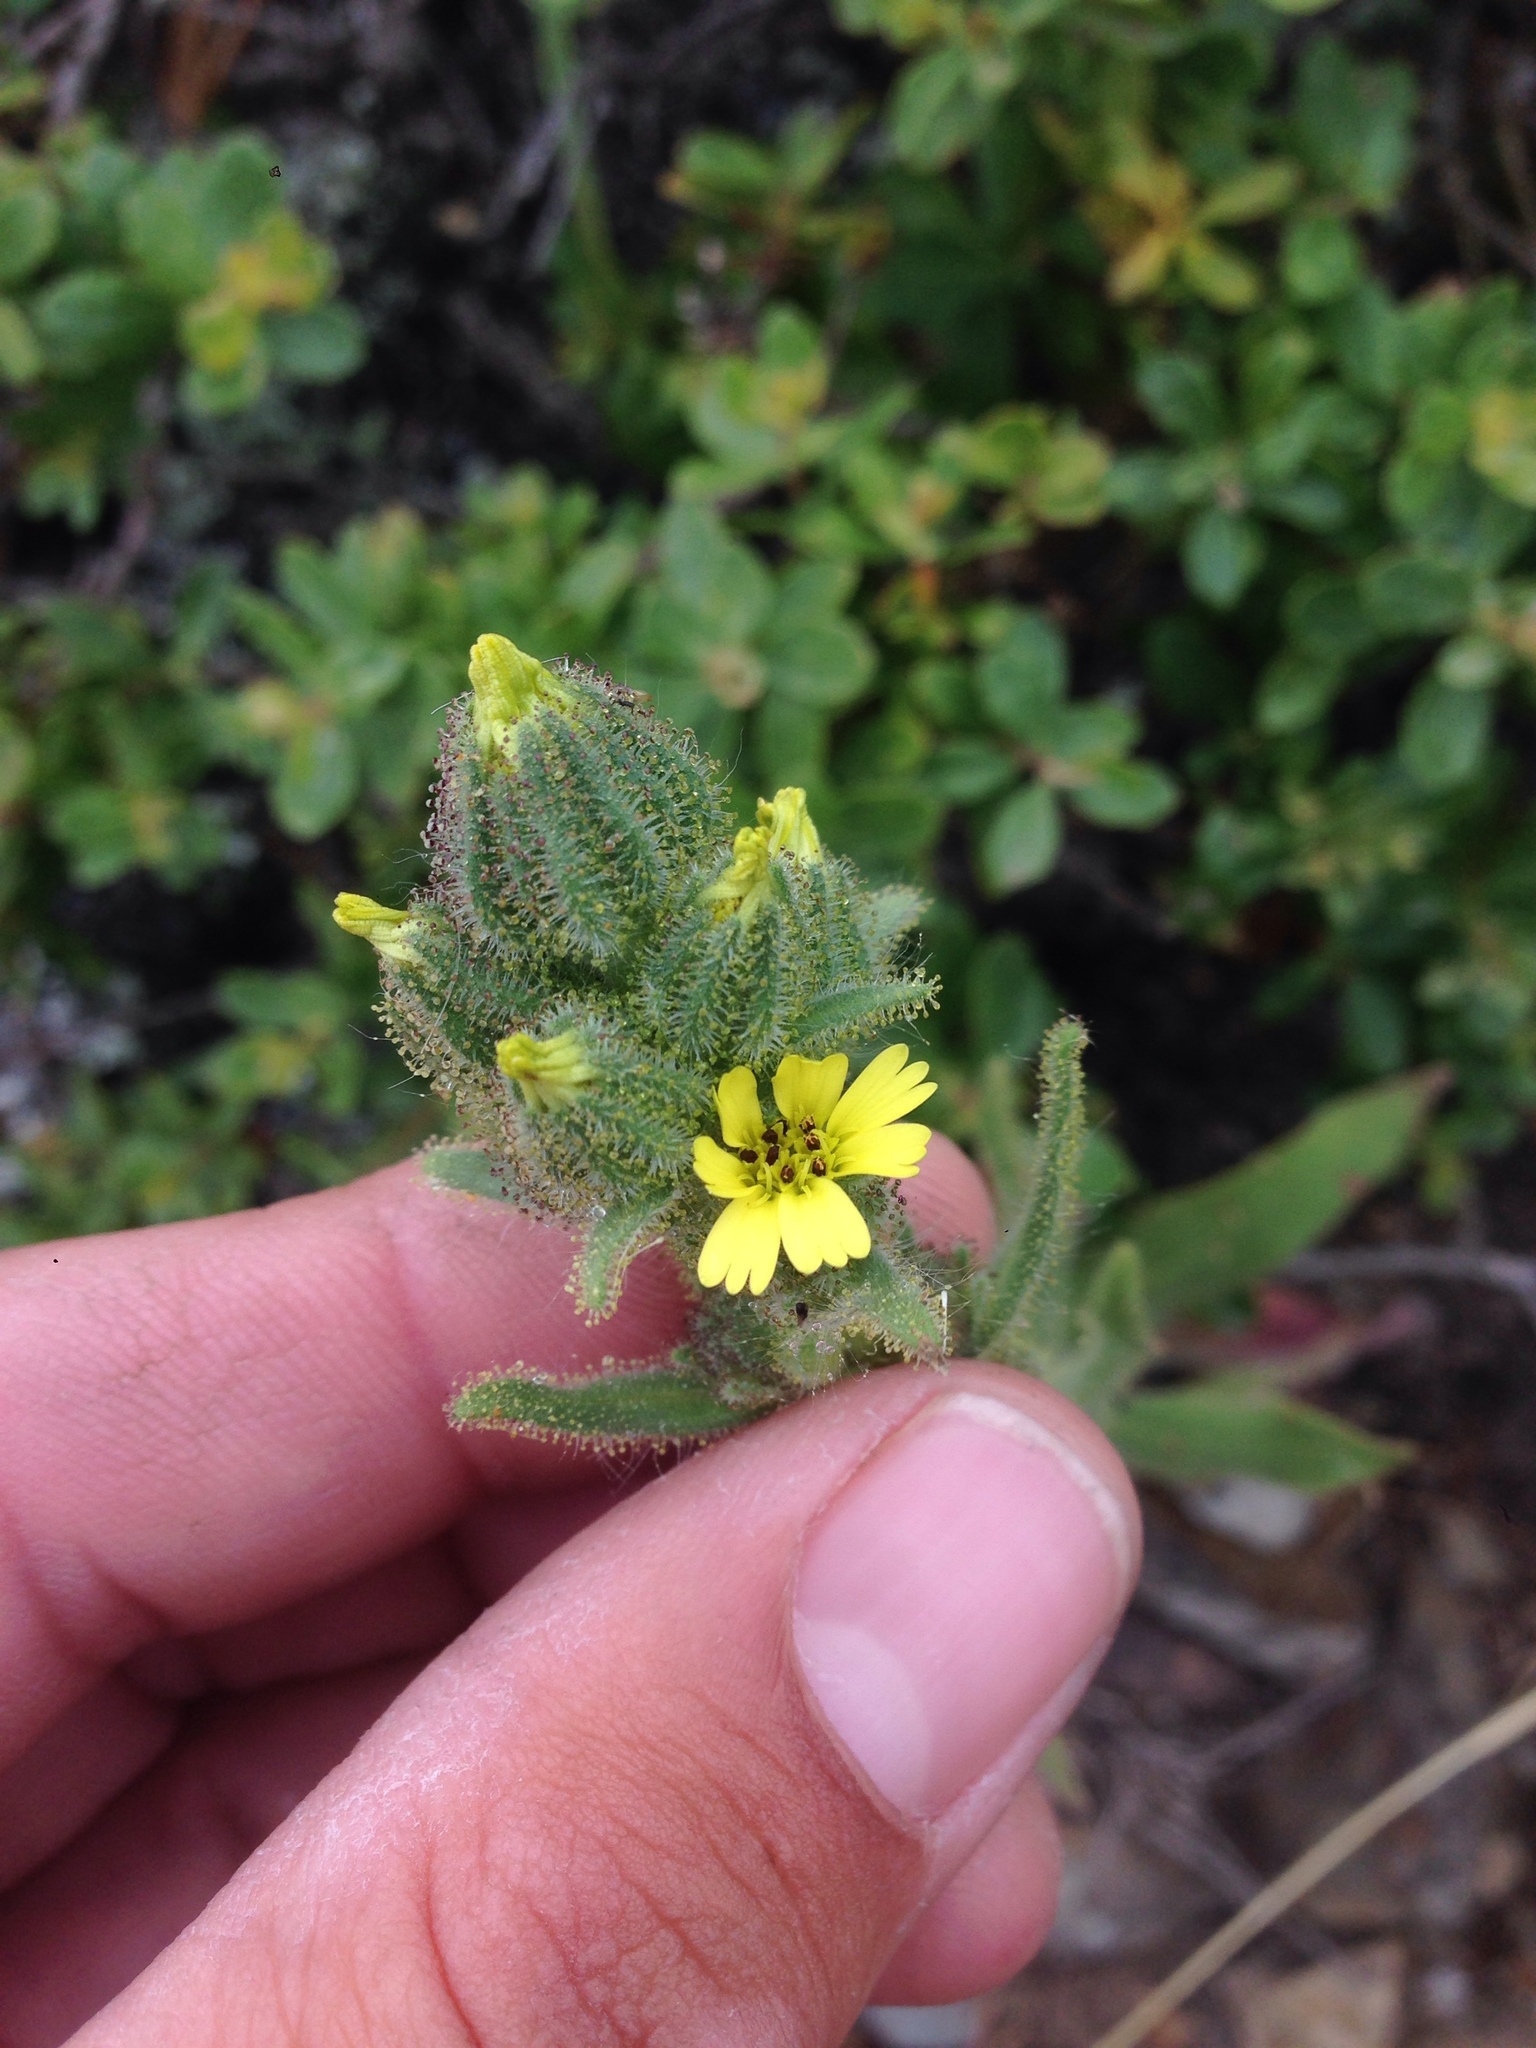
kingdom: Plantae
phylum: Tracheophyta
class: Magnoliopsida
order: Asterales
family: Asteraceae
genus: Madia
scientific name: Madia sativa
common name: Coast tarweed
